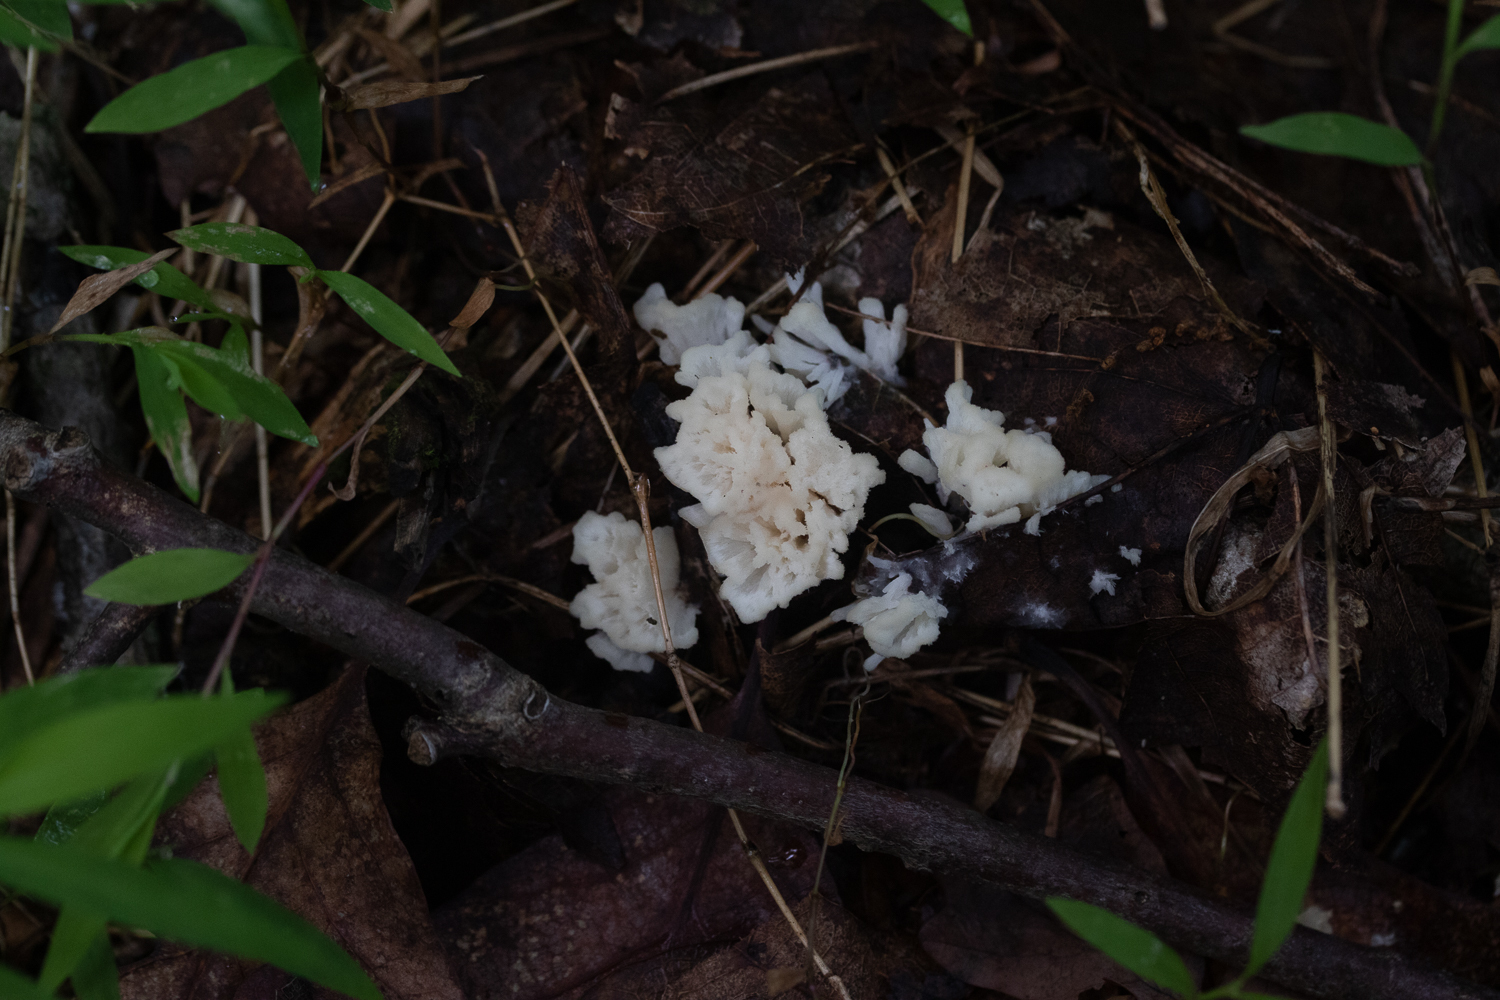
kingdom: Fungi
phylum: Basidiomycota
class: Agaricomycetes
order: Sebacinales
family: Sebacinaceae
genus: Sebacina
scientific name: Sebacina schweinitzii
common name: Jellied false coral fungus
